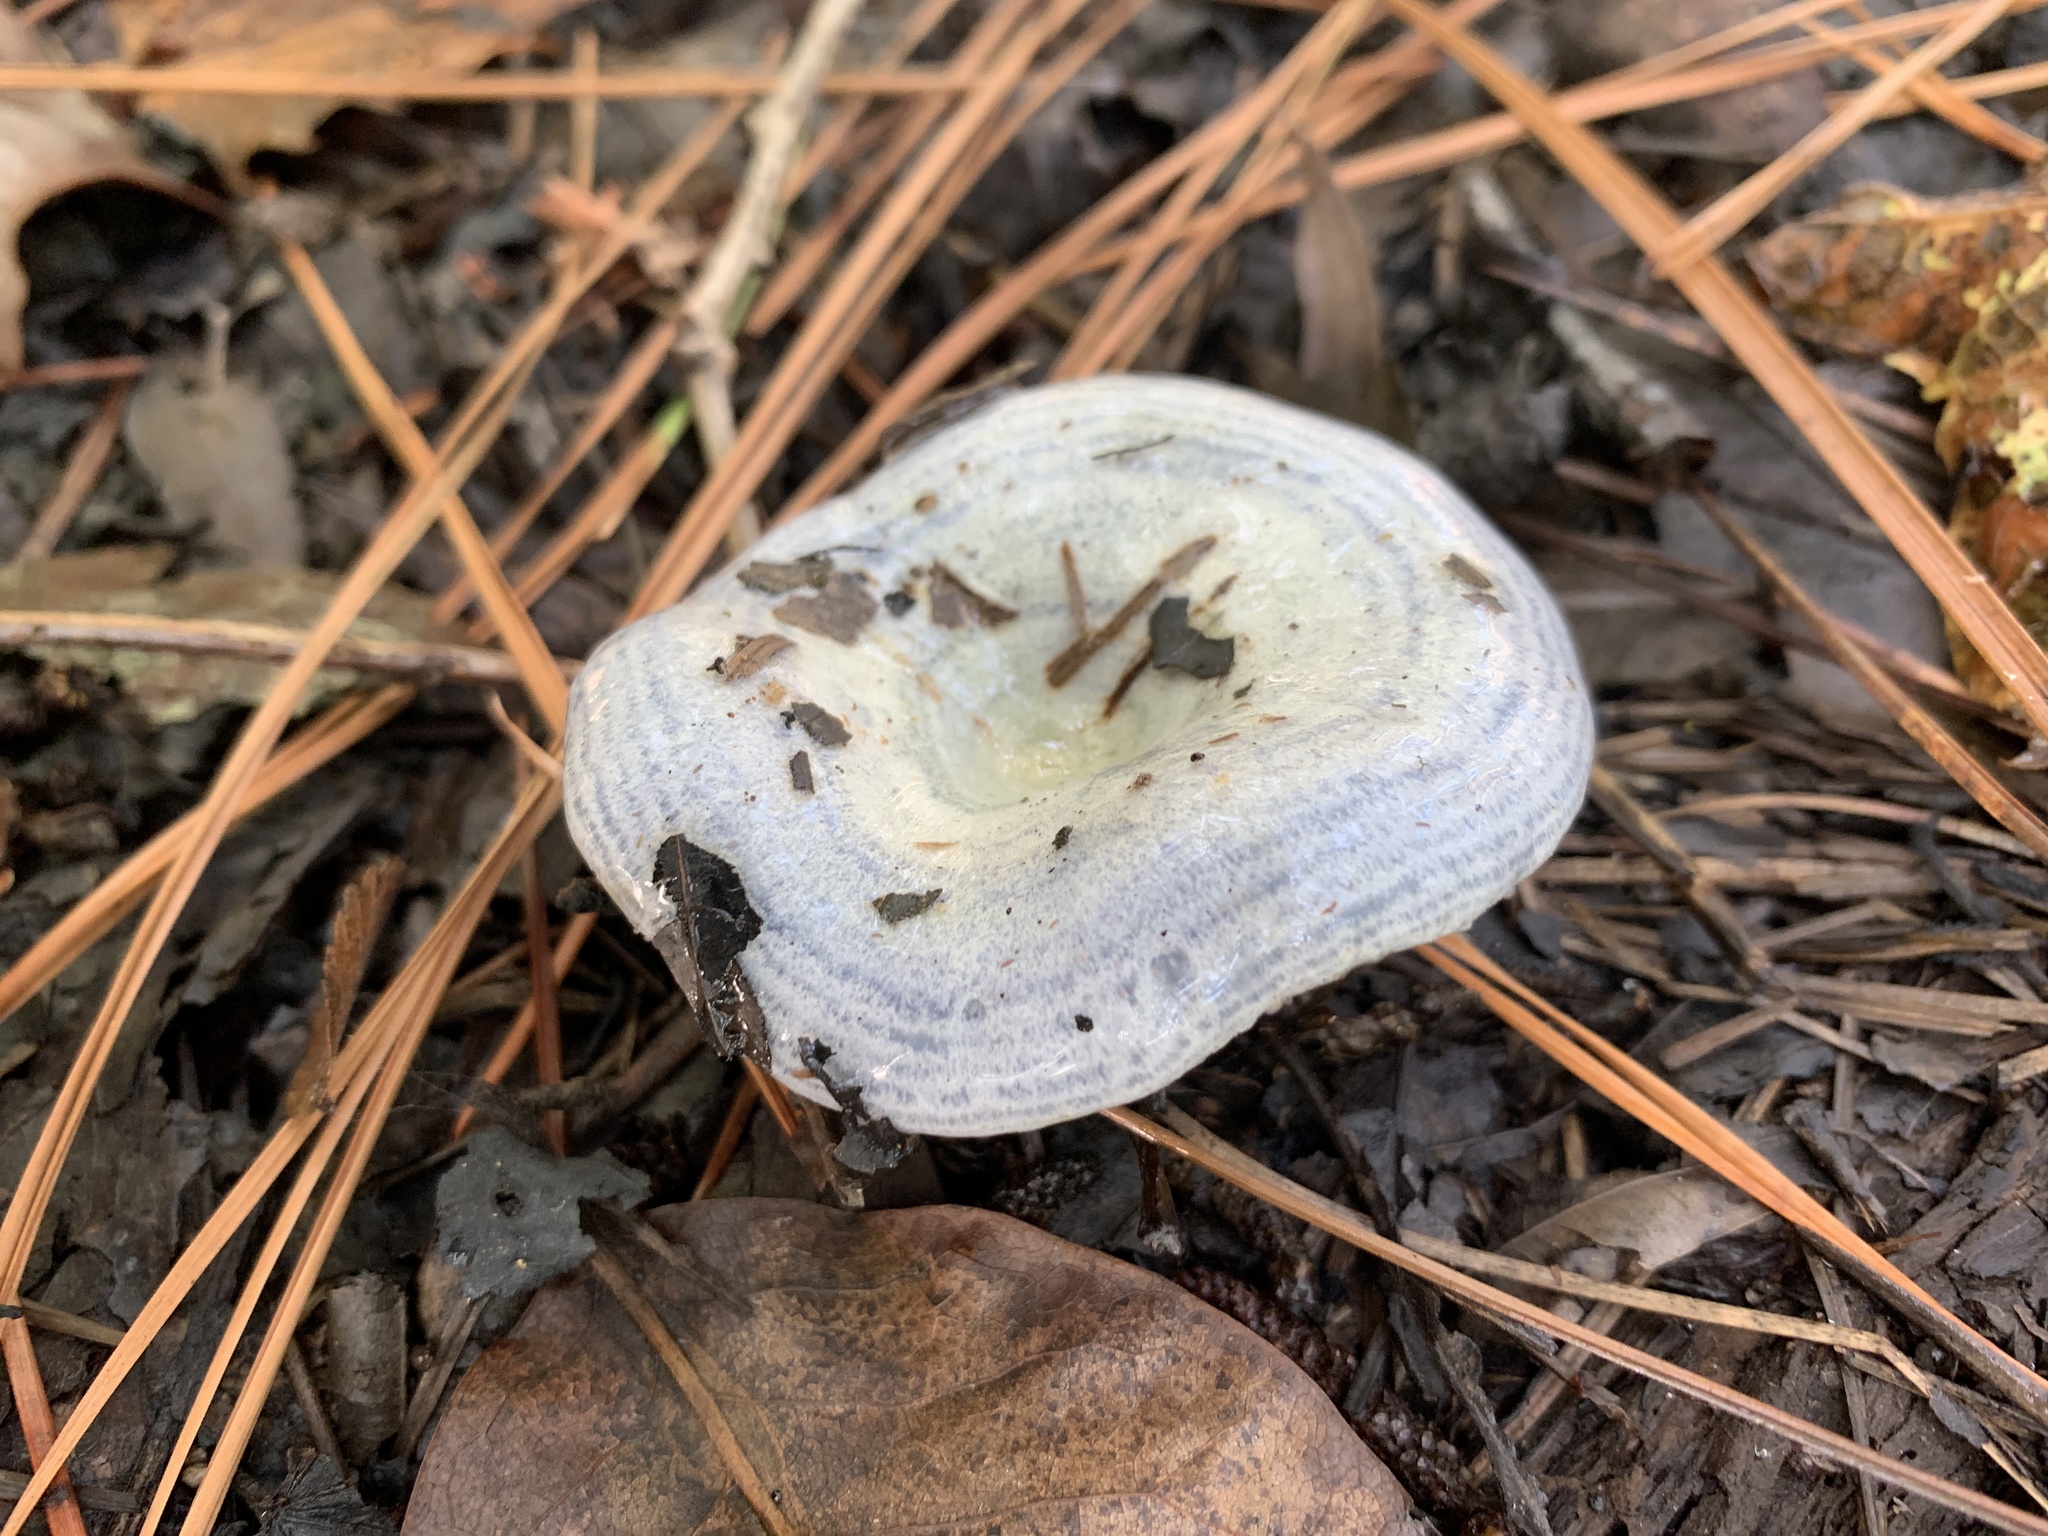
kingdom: Fungi
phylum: Basidiomycota
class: Agaricomycetes
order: Russulales
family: Russulaceae
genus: Lactarius
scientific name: Lactarius indigo
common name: Indigo milk cap
